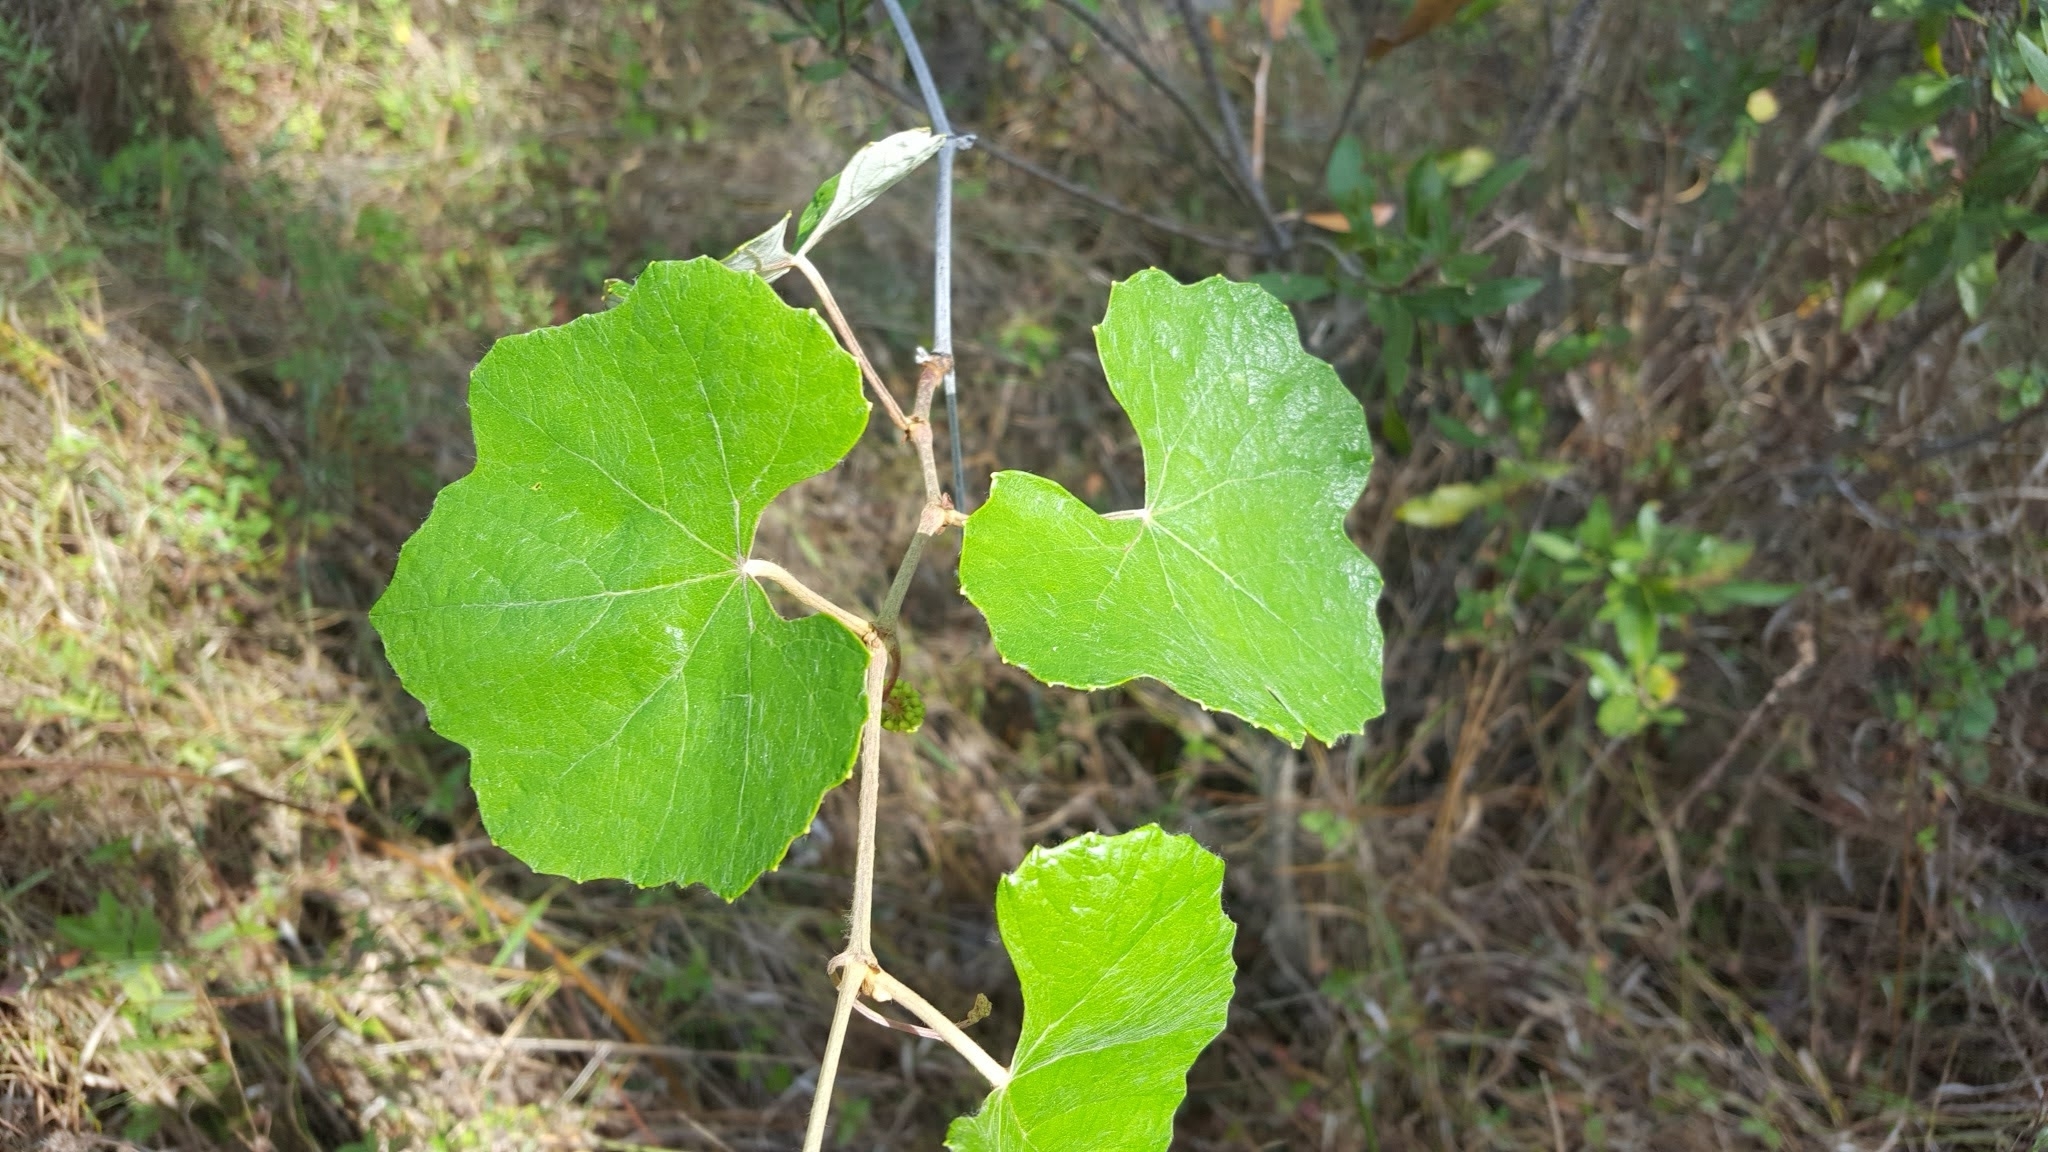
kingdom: Plantae
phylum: Tracheophyta
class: Magnoliopsida
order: Vitales
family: Vitaceae
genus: Vitis
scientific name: Vitis aestivalis
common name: Pigeon grape
